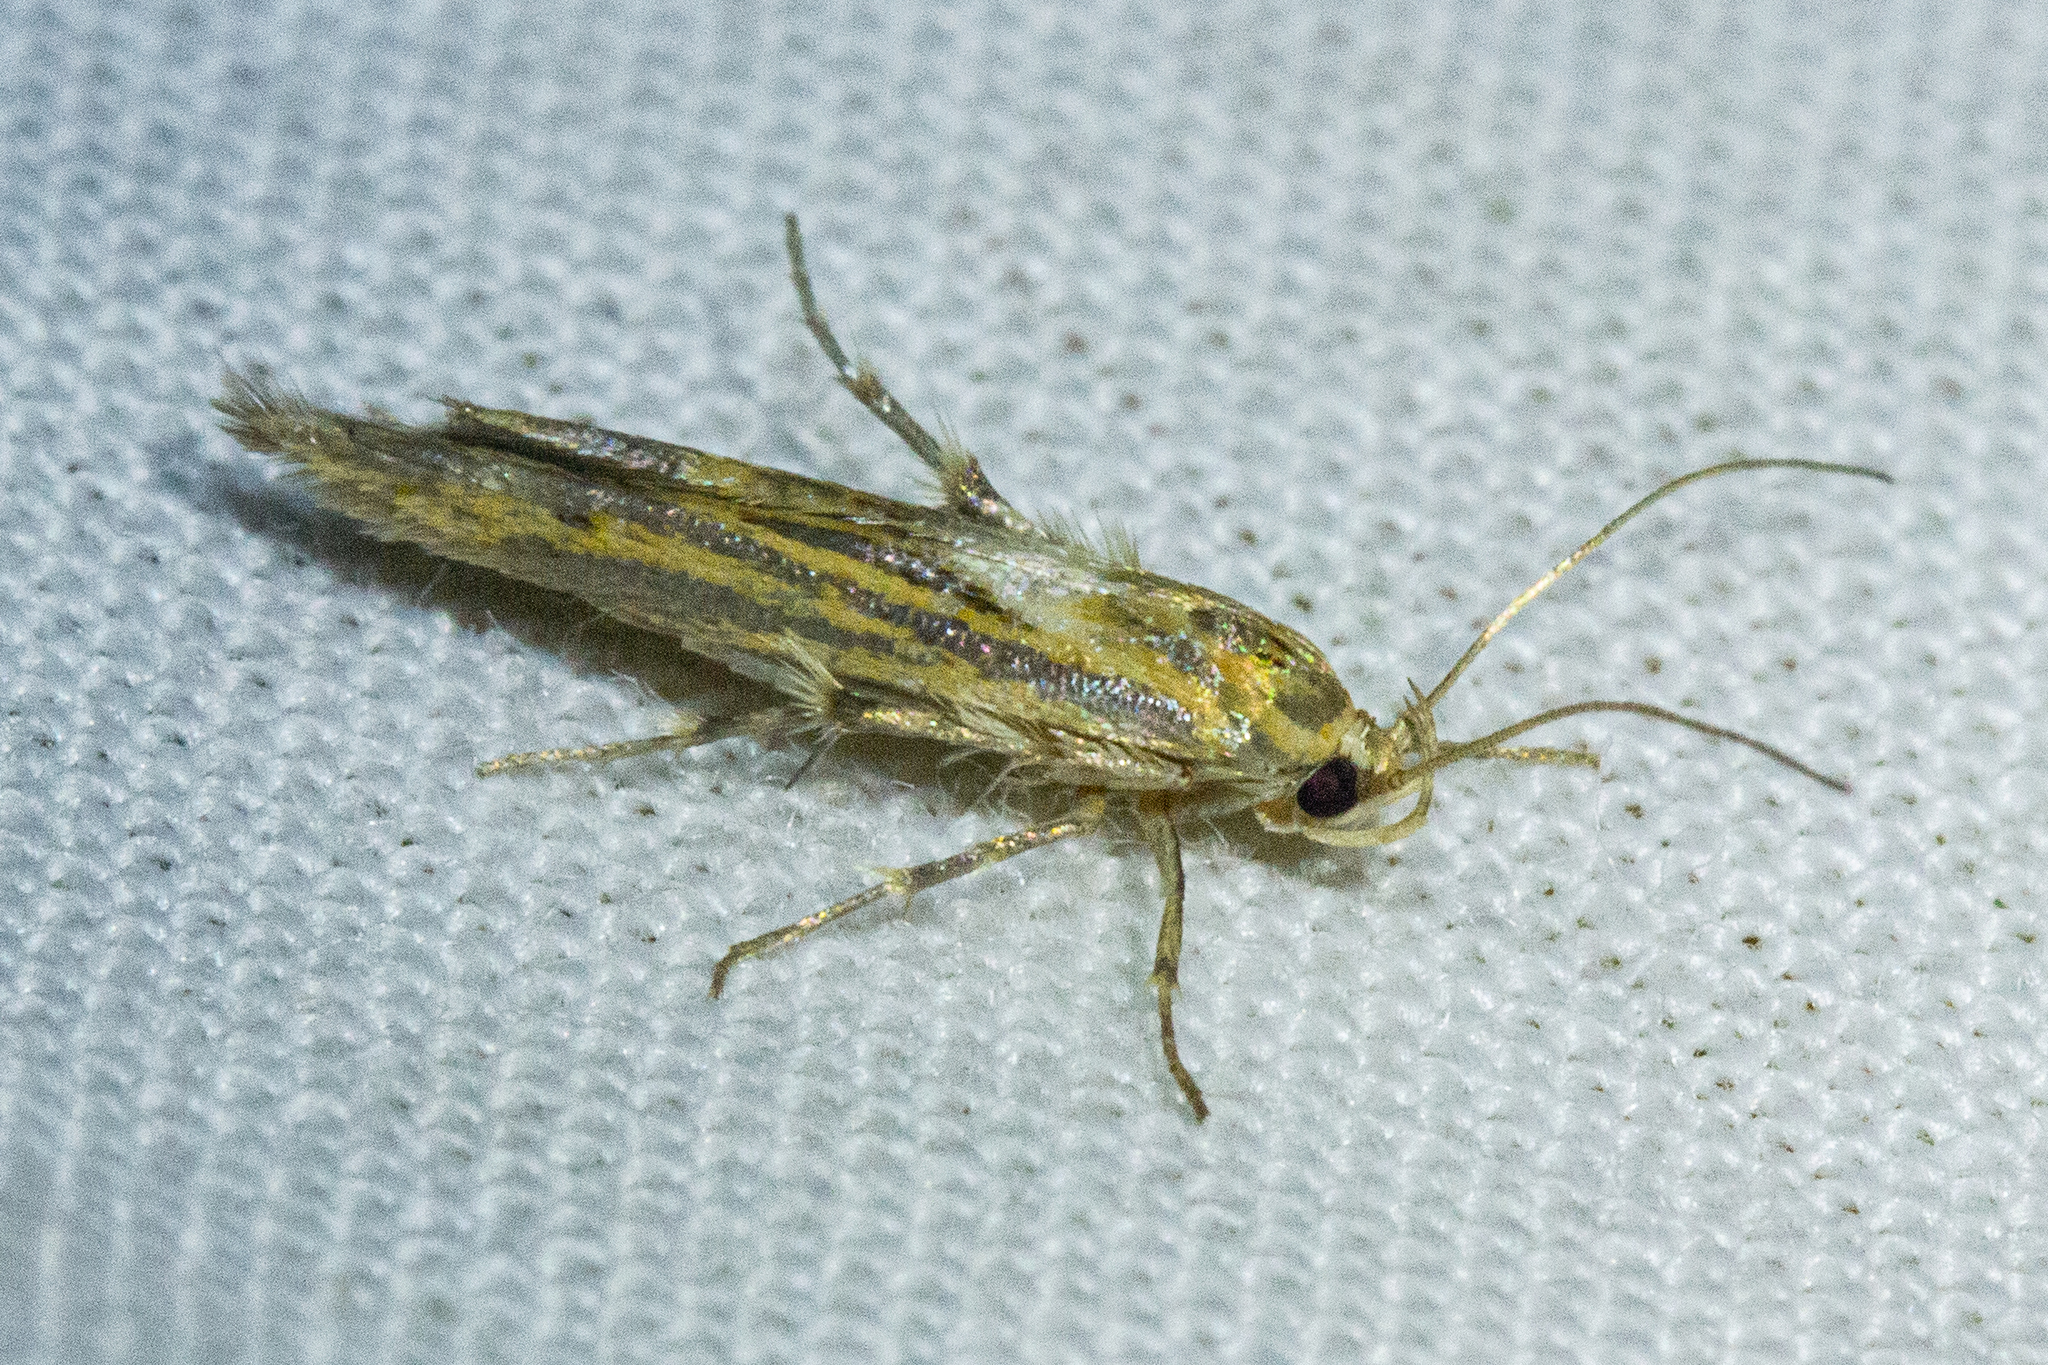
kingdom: Animalia
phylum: Arthropoda
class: Insecta
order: Lepidoptera
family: Stathmopodidae
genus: Stathmopoda
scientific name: Stathmopoda plumbiflua
